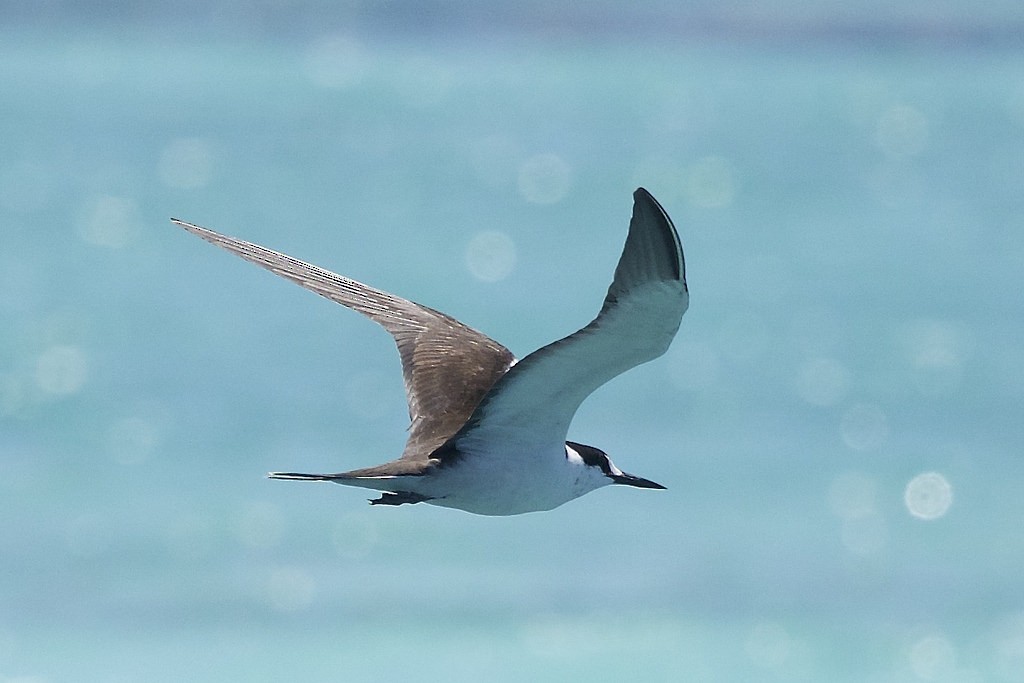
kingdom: Animalia
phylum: Chordata
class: Aves
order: Charadriiformes
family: Laridae
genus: Onychoprion
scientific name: Onychoprion fuscatus
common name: Sooty tern
